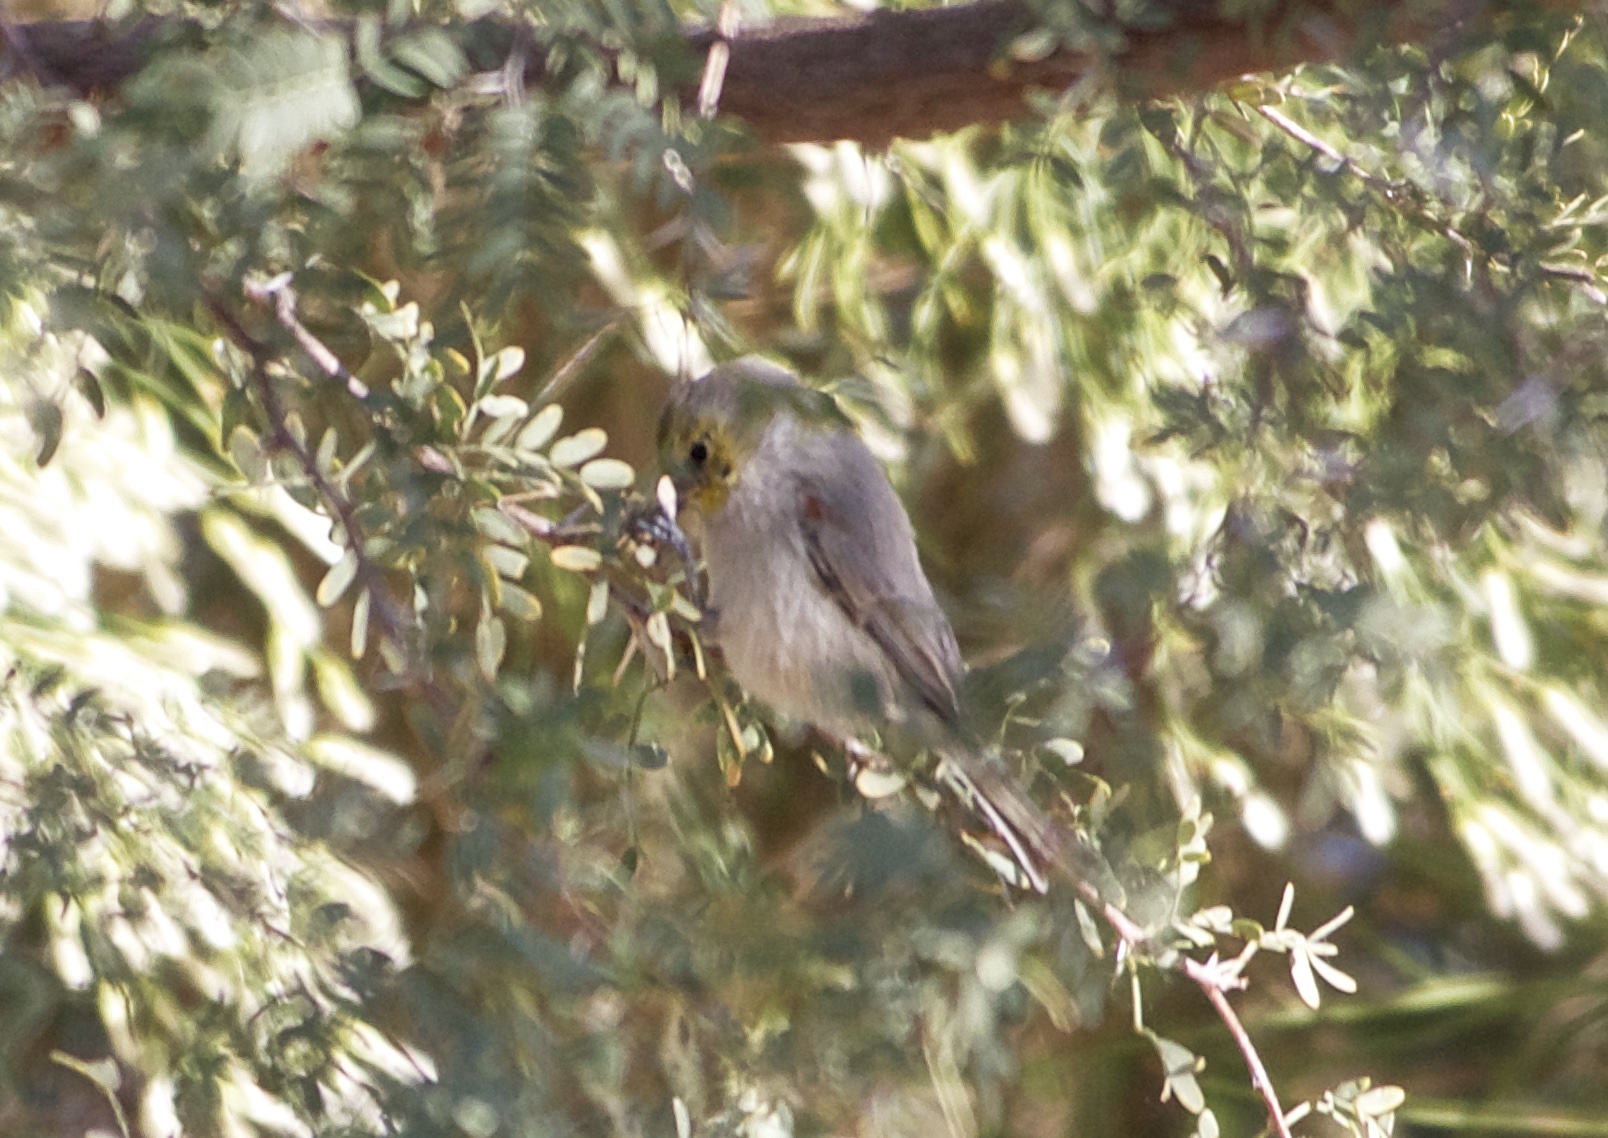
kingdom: Animalia
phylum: Chordata
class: Aves
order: Passeriformes
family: Remizidae
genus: Auriparus
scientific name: Auriparus flaviceps
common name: Verdin
